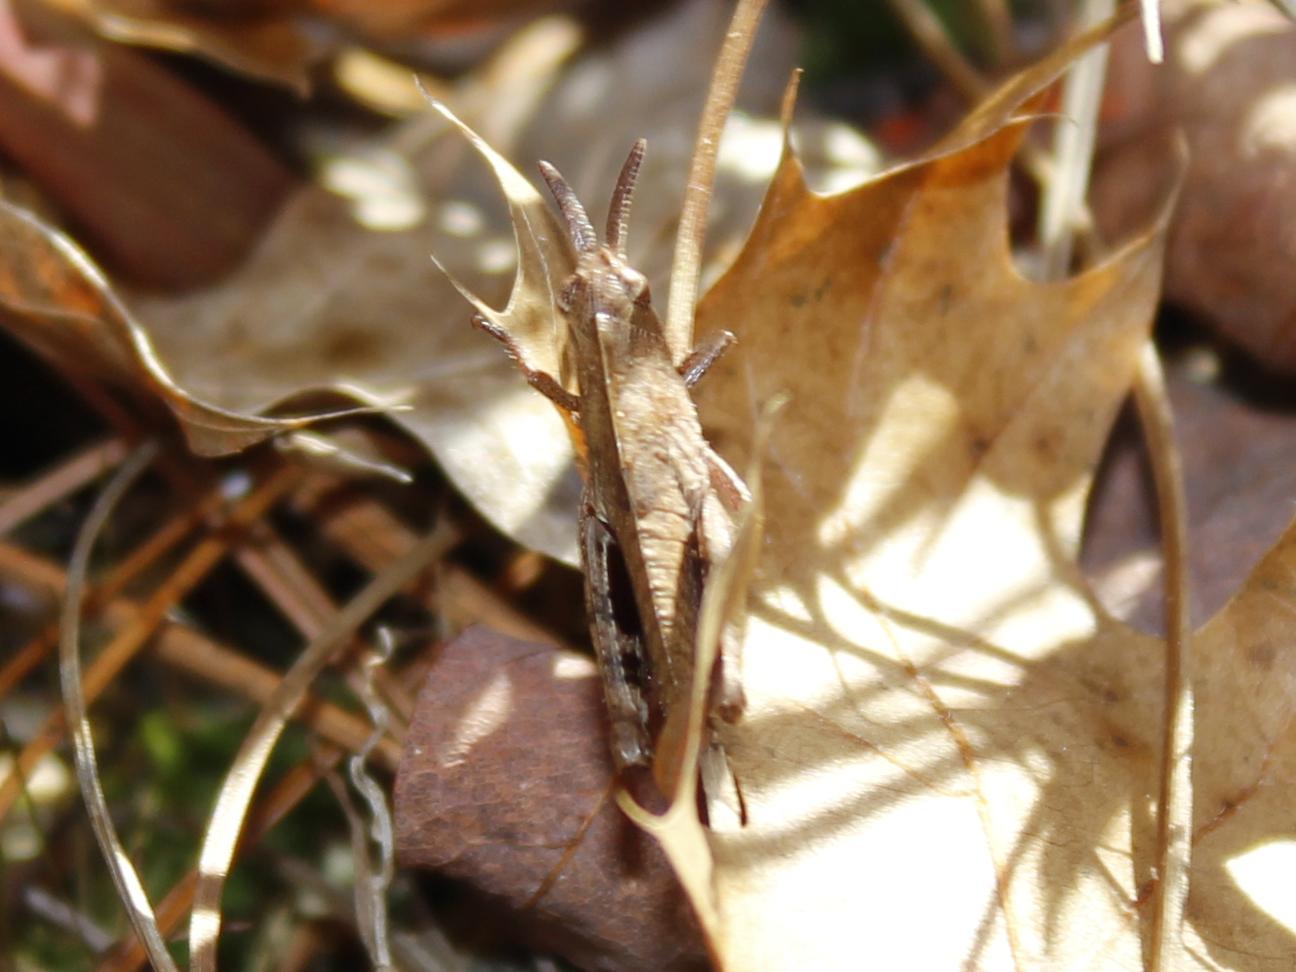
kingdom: Animalia
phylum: Arthropoda
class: Insecta
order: Orthoptera
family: Acrididae
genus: Chortophaga
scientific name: Chortophaga viridifasciata
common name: Green-striped grasshopper
